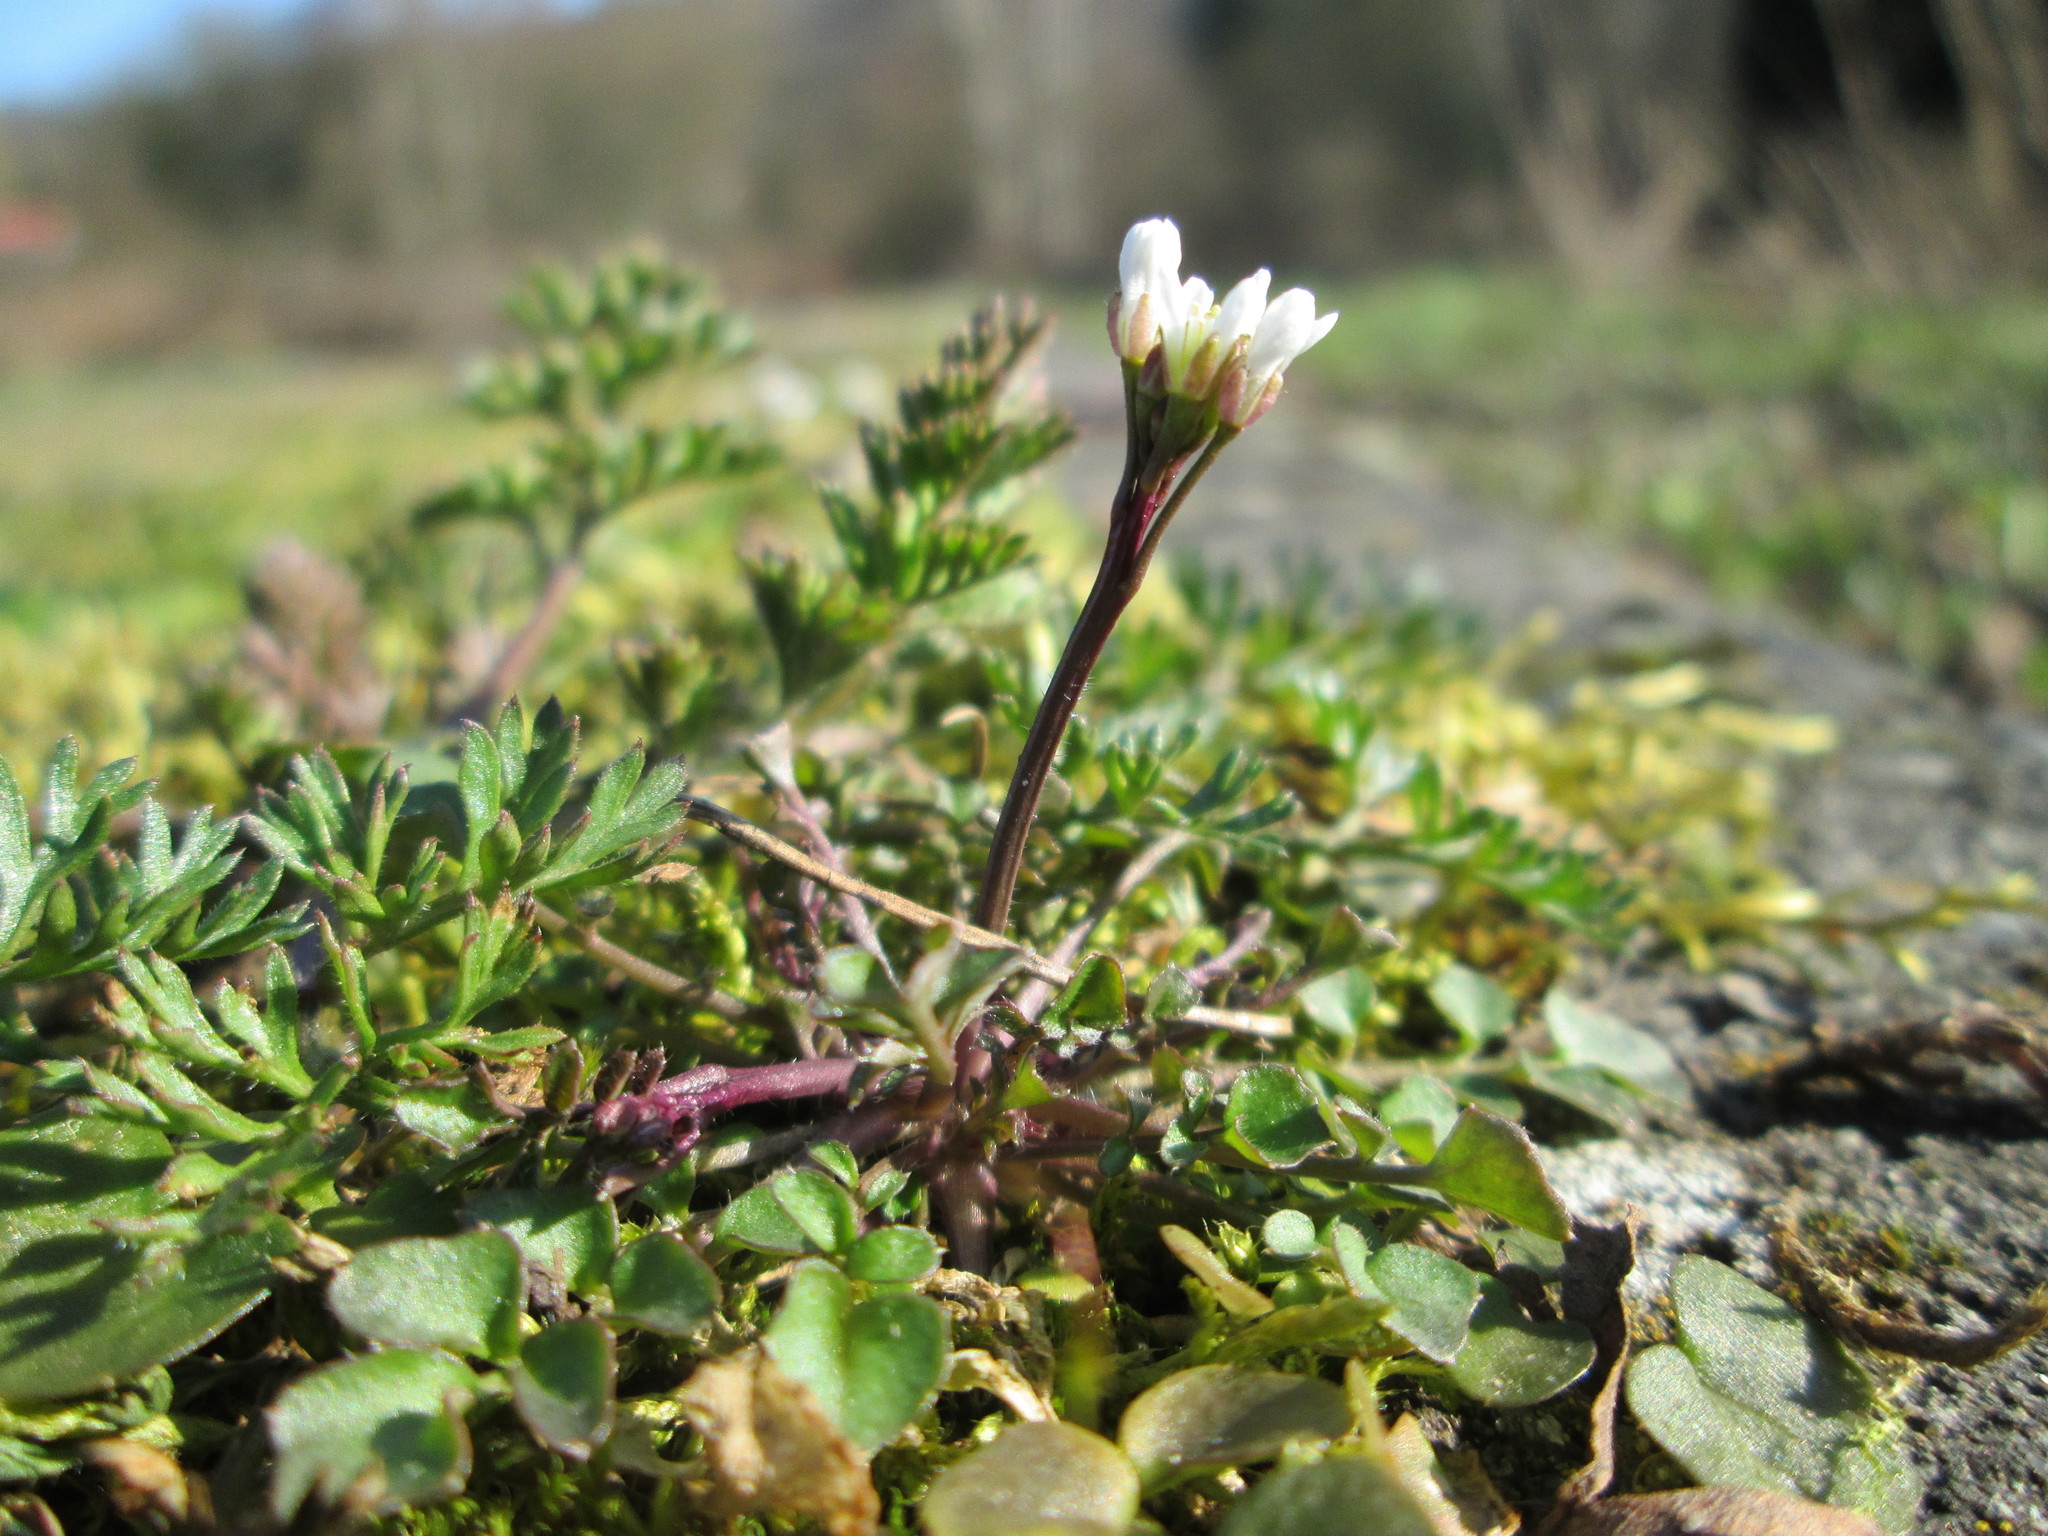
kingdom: Plantae
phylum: Tracheophyta
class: Magnoliopsida
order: Brassicales
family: Brassicaceae
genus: Cardamine
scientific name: Cardamine hirsuta
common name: Hairy bittercress
